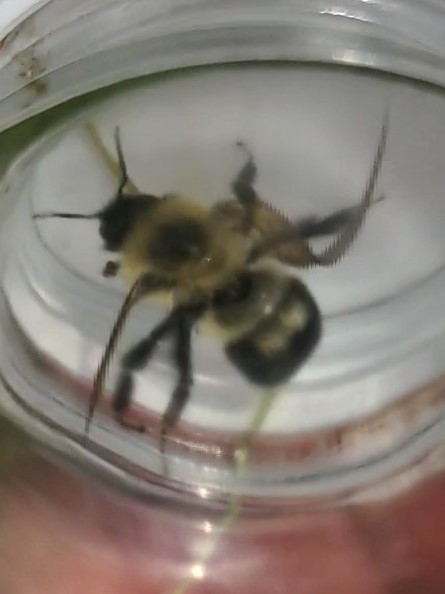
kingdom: Animalia
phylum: Arthropoda
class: Insecta
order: Hymenoptera
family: Apidae
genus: Bombus
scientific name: Bombus bimaculatus
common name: Two-spotted bumble bee
